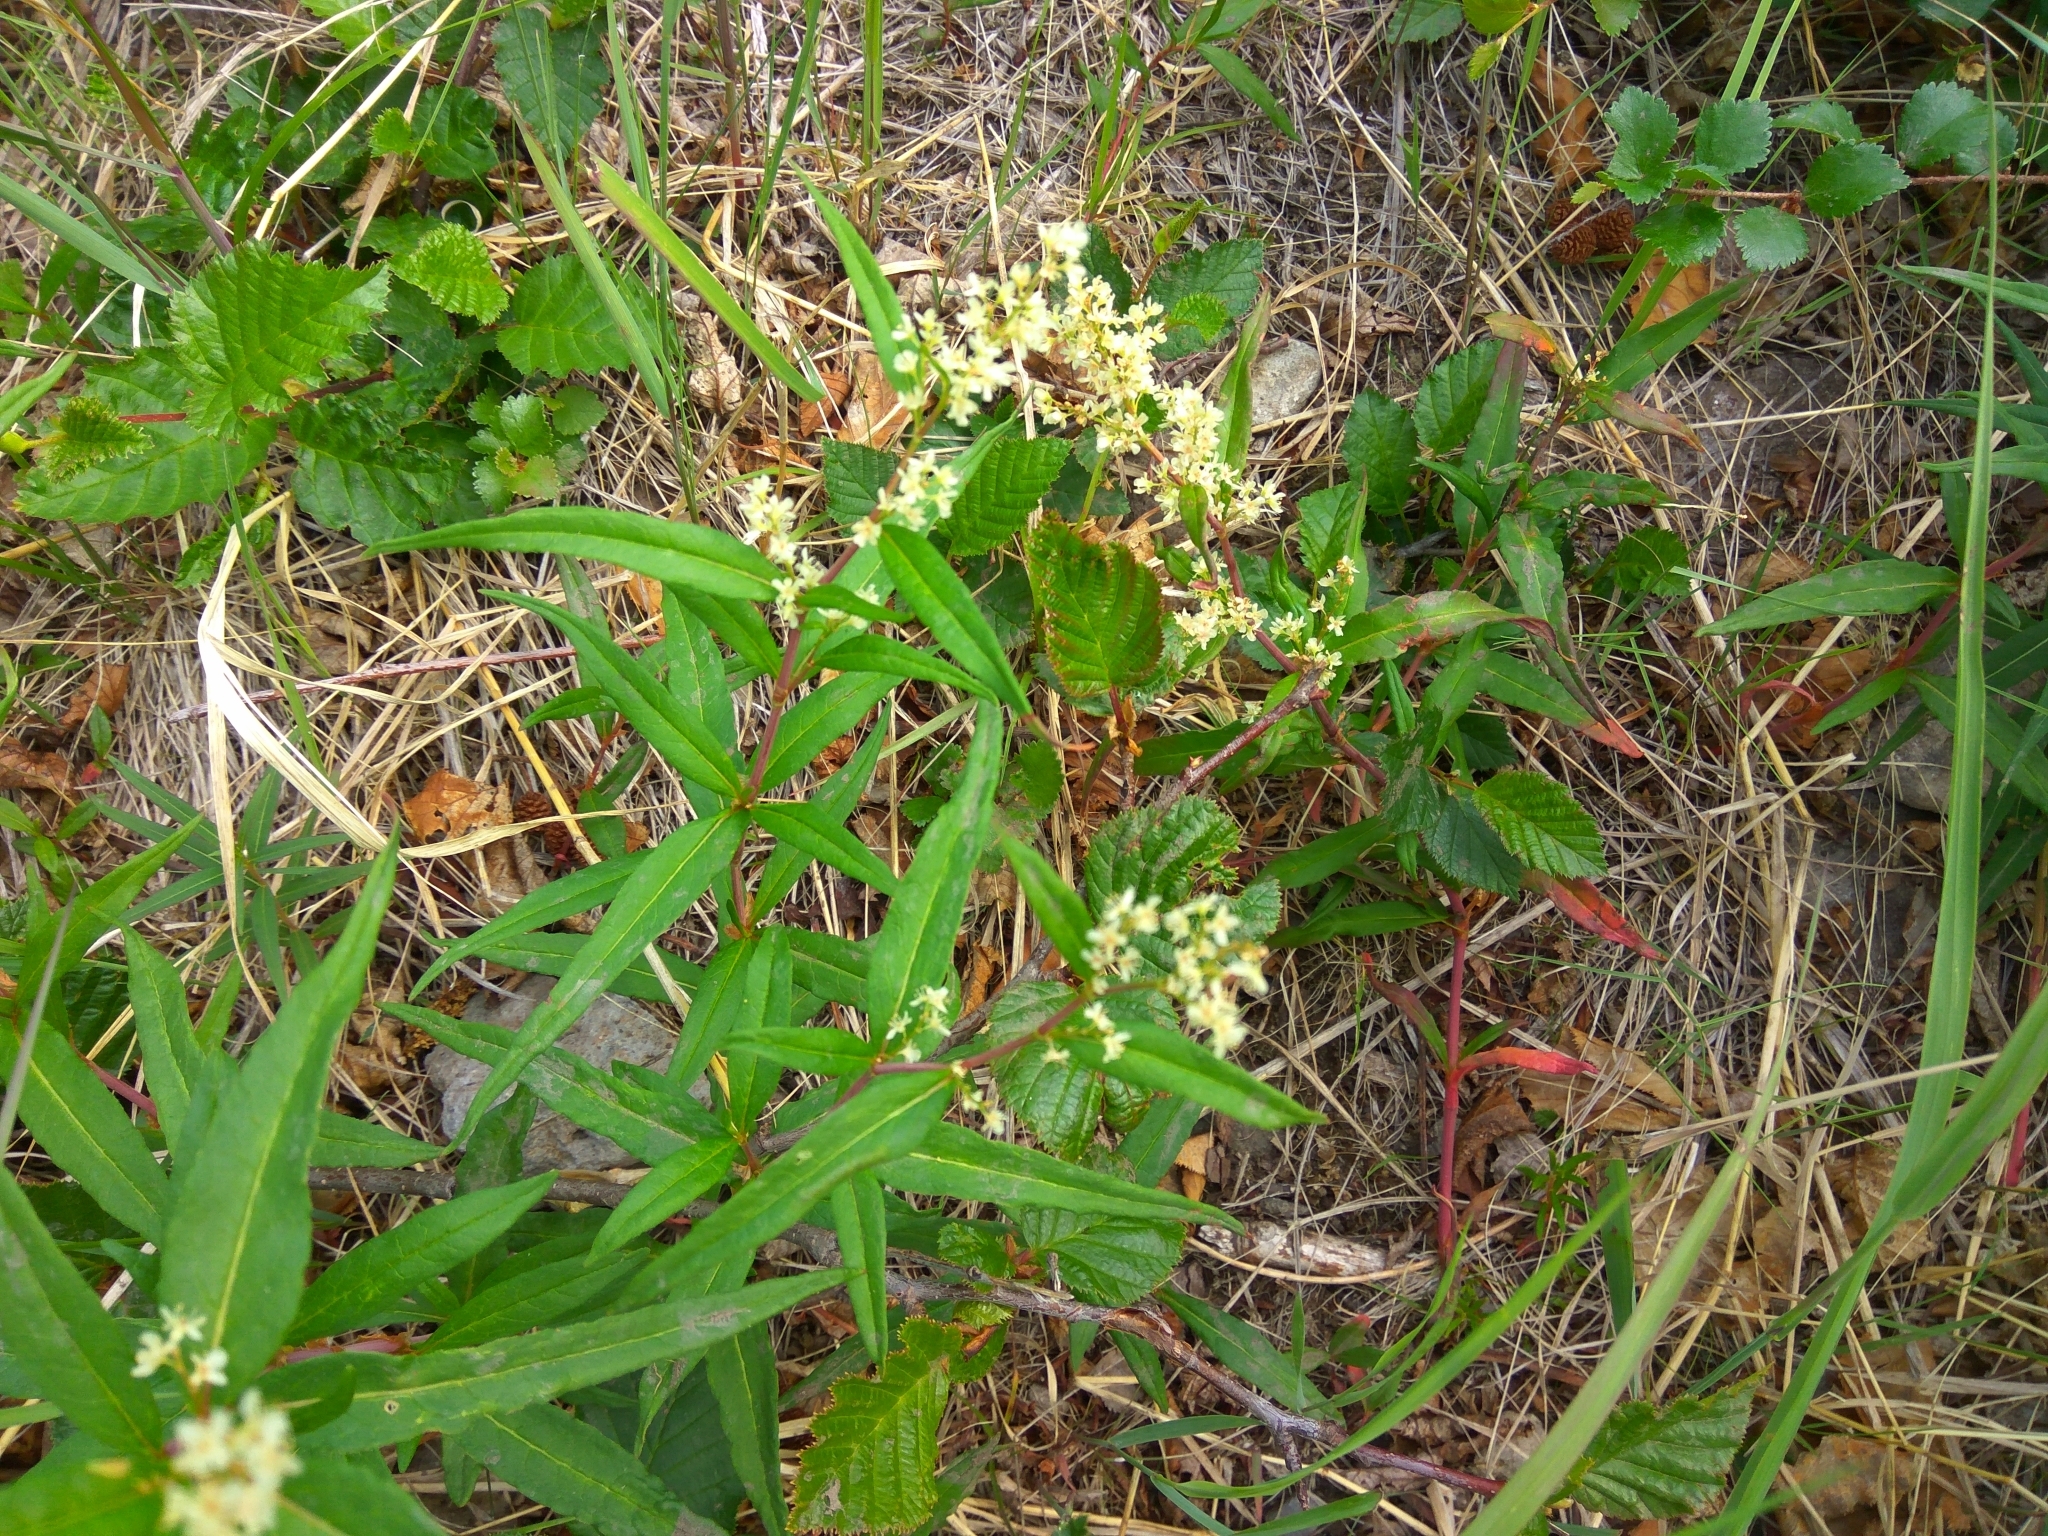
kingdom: Plantae
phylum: Tracheophyta
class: Magnoliopsida
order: Caryophyllales
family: Polygonaceae
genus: Koenigia
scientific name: Koenigia tripterocarpa
